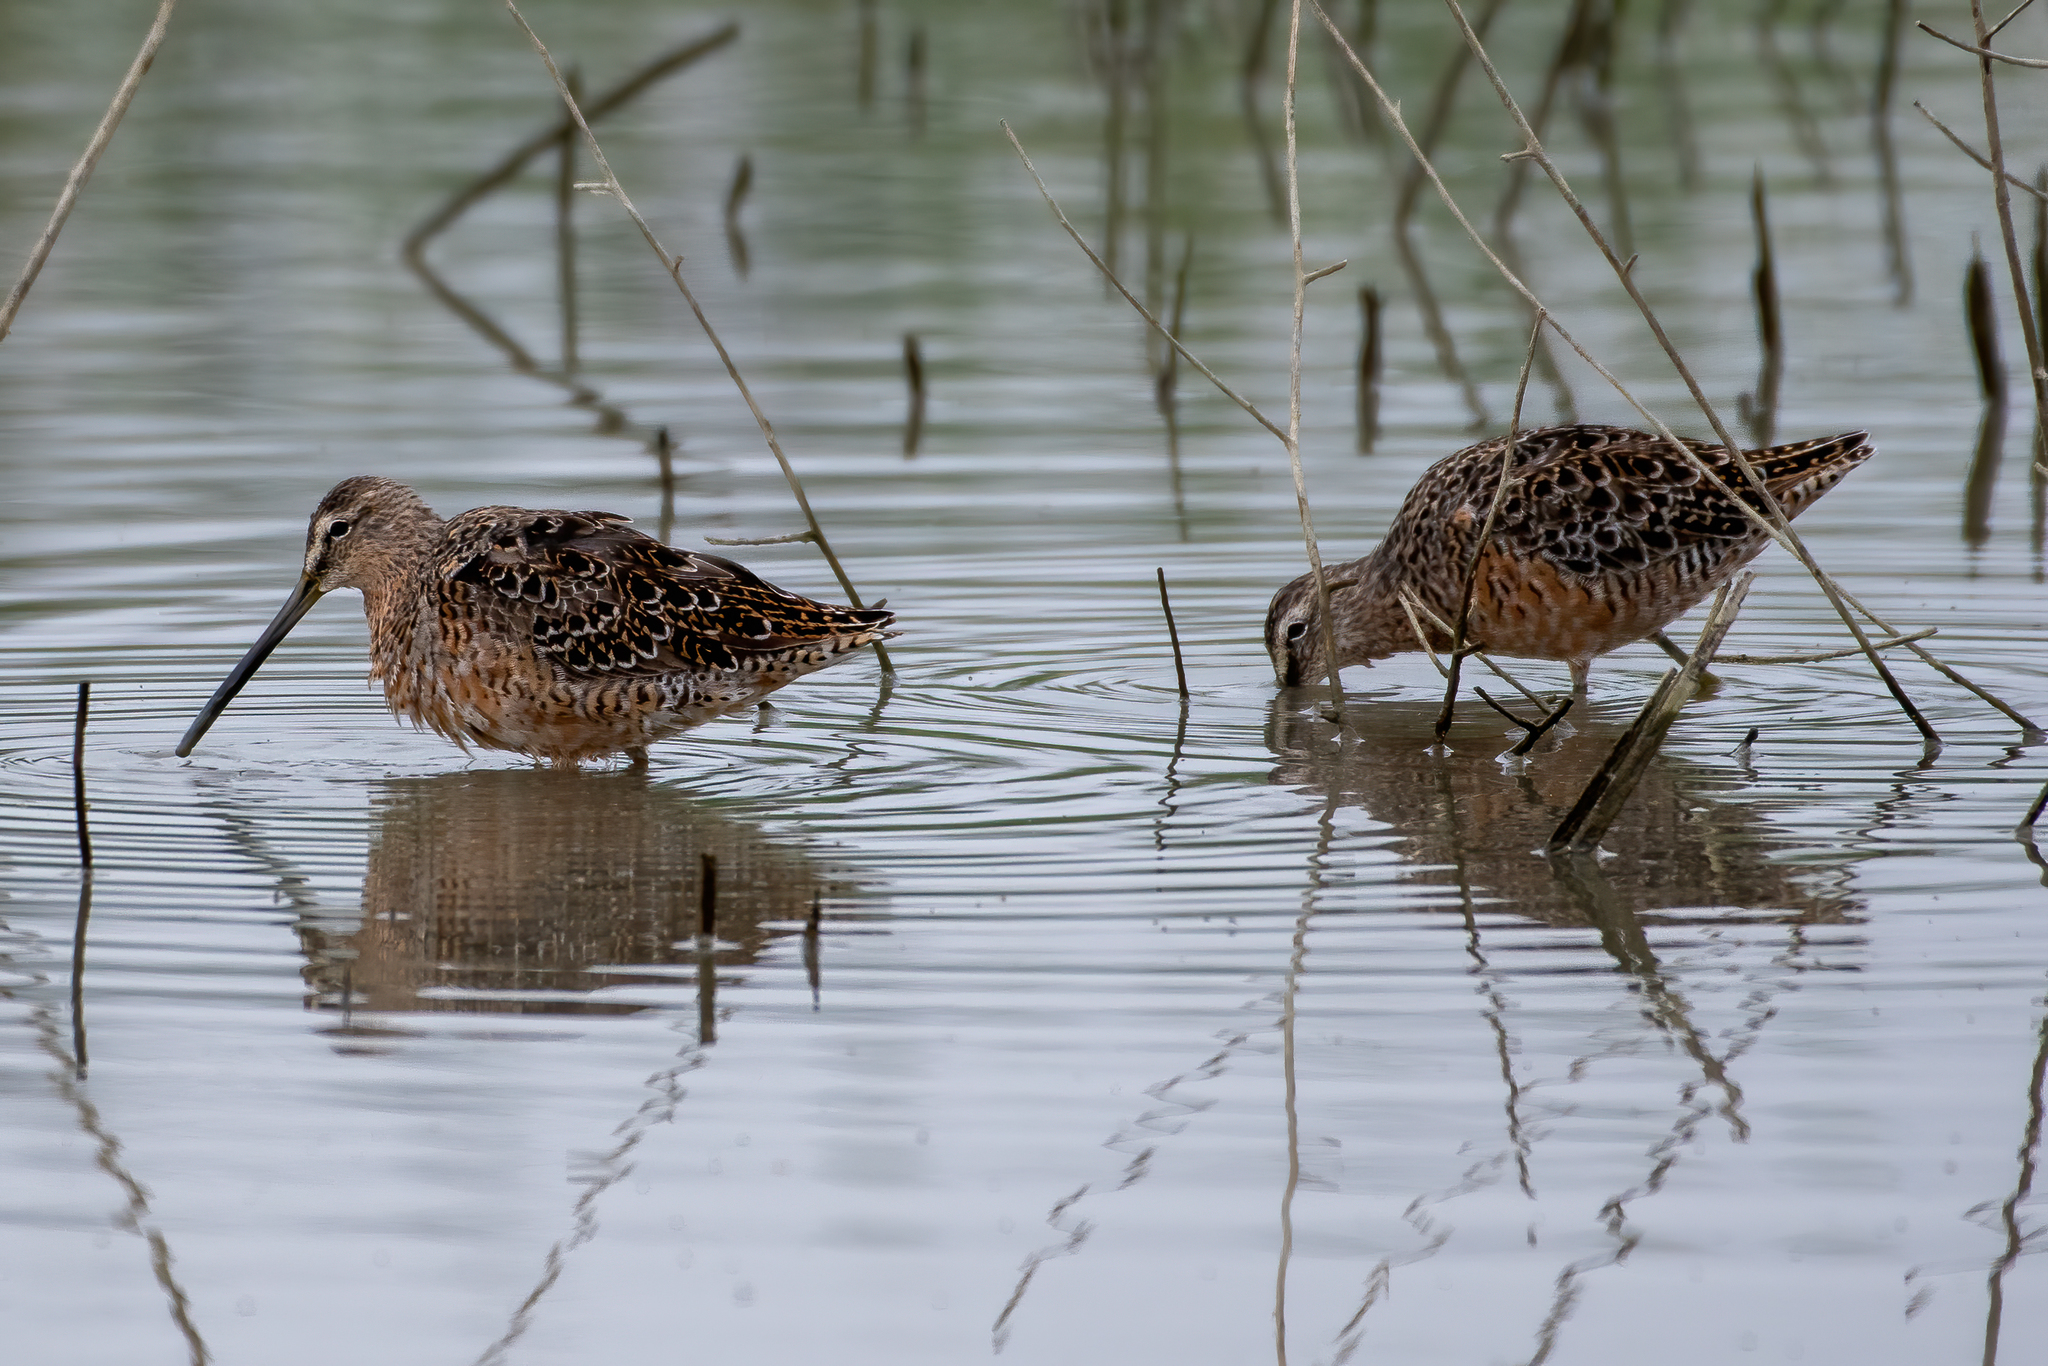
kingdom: Animalia
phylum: Chordata
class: Aves
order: Charadriiformes
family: Scolopacidae
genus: Limnodromus
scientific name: Limnodromus scolopaceus
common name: Long-billed dowitcher
